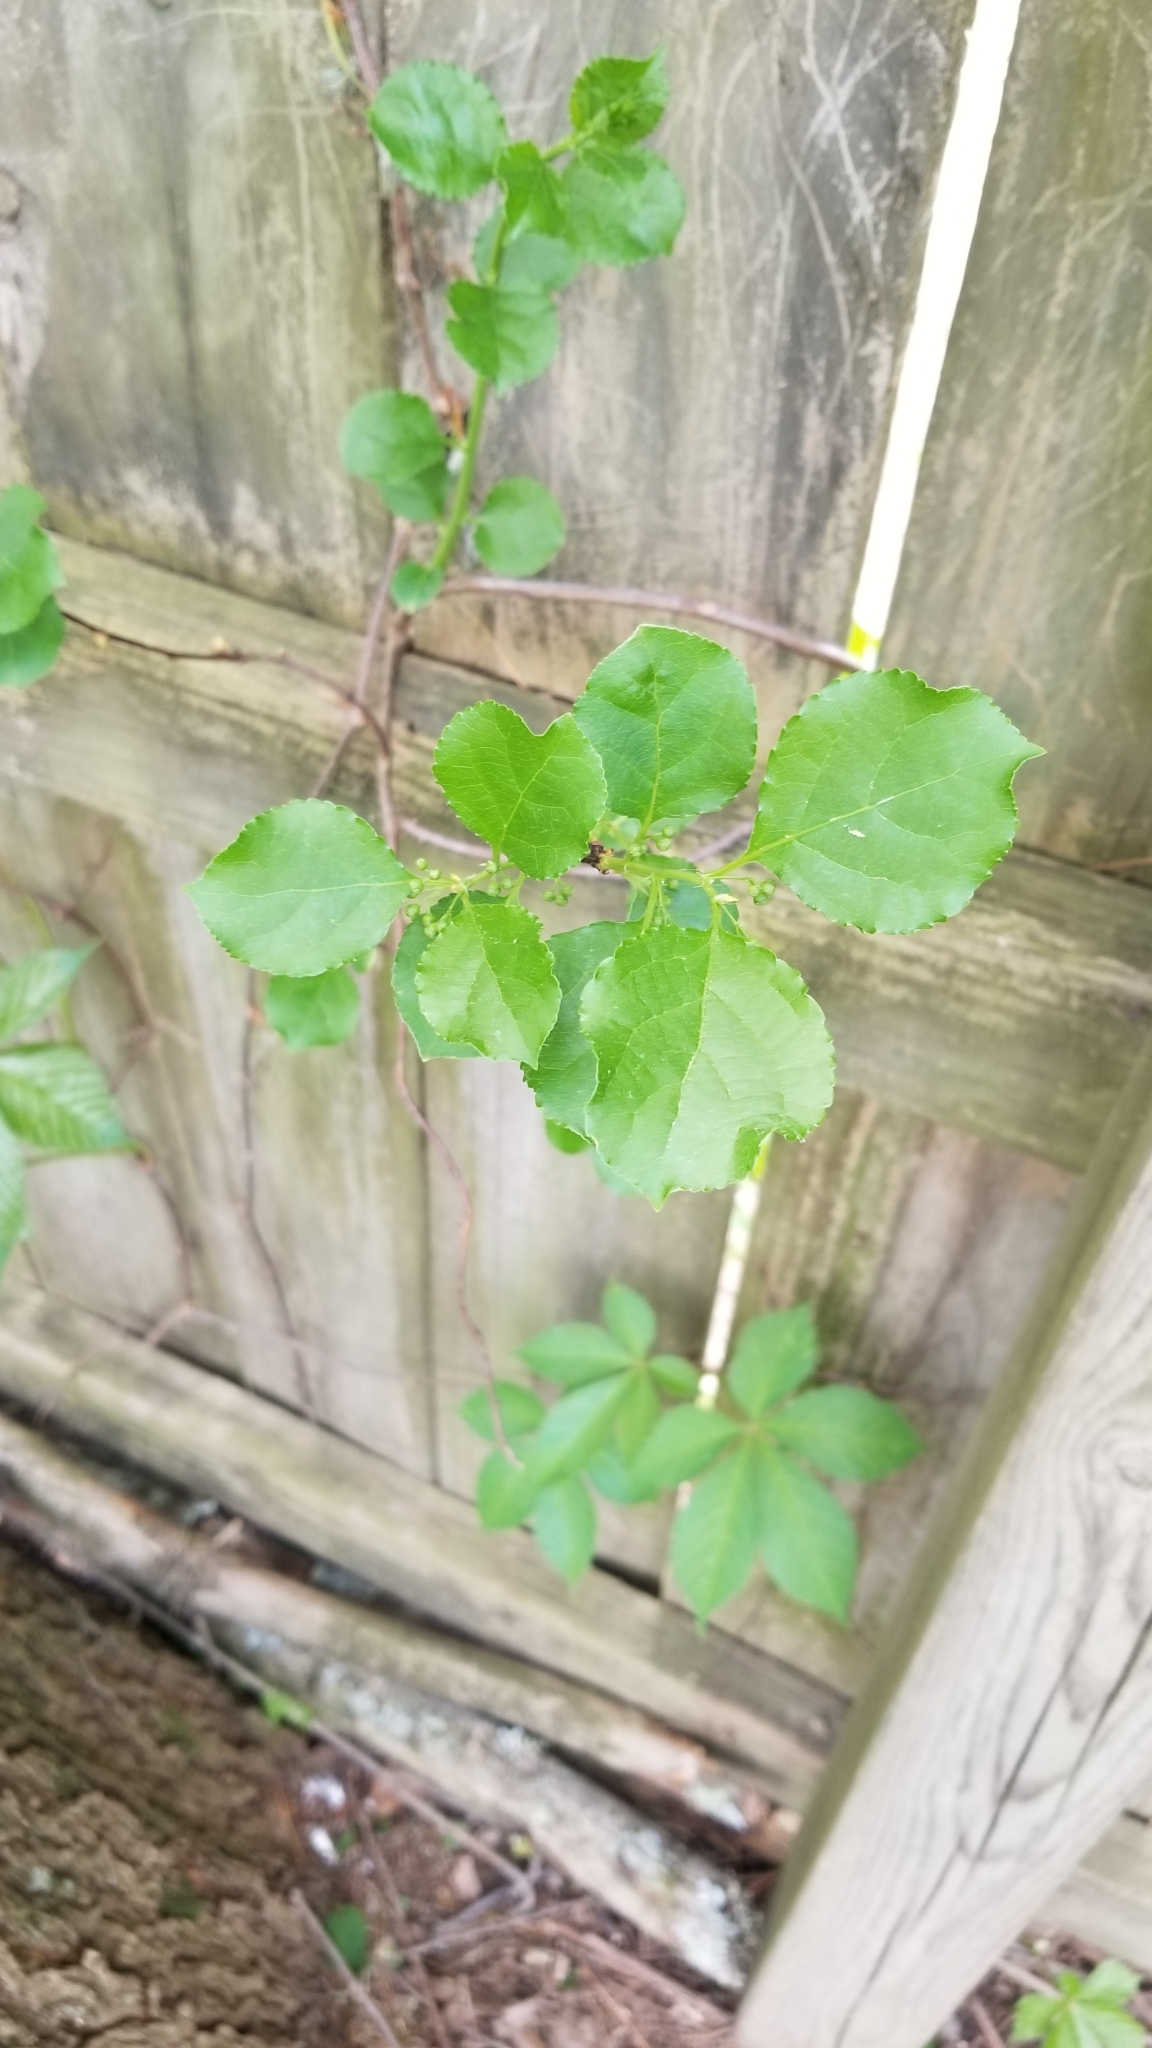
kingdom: Plantae
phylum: Tracheophyta
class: Magnoliopsida
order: Celastrales
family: Celastraceae
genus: Celastrus
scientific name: Celastrus orbiculatus
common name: Oriental bittersweet
